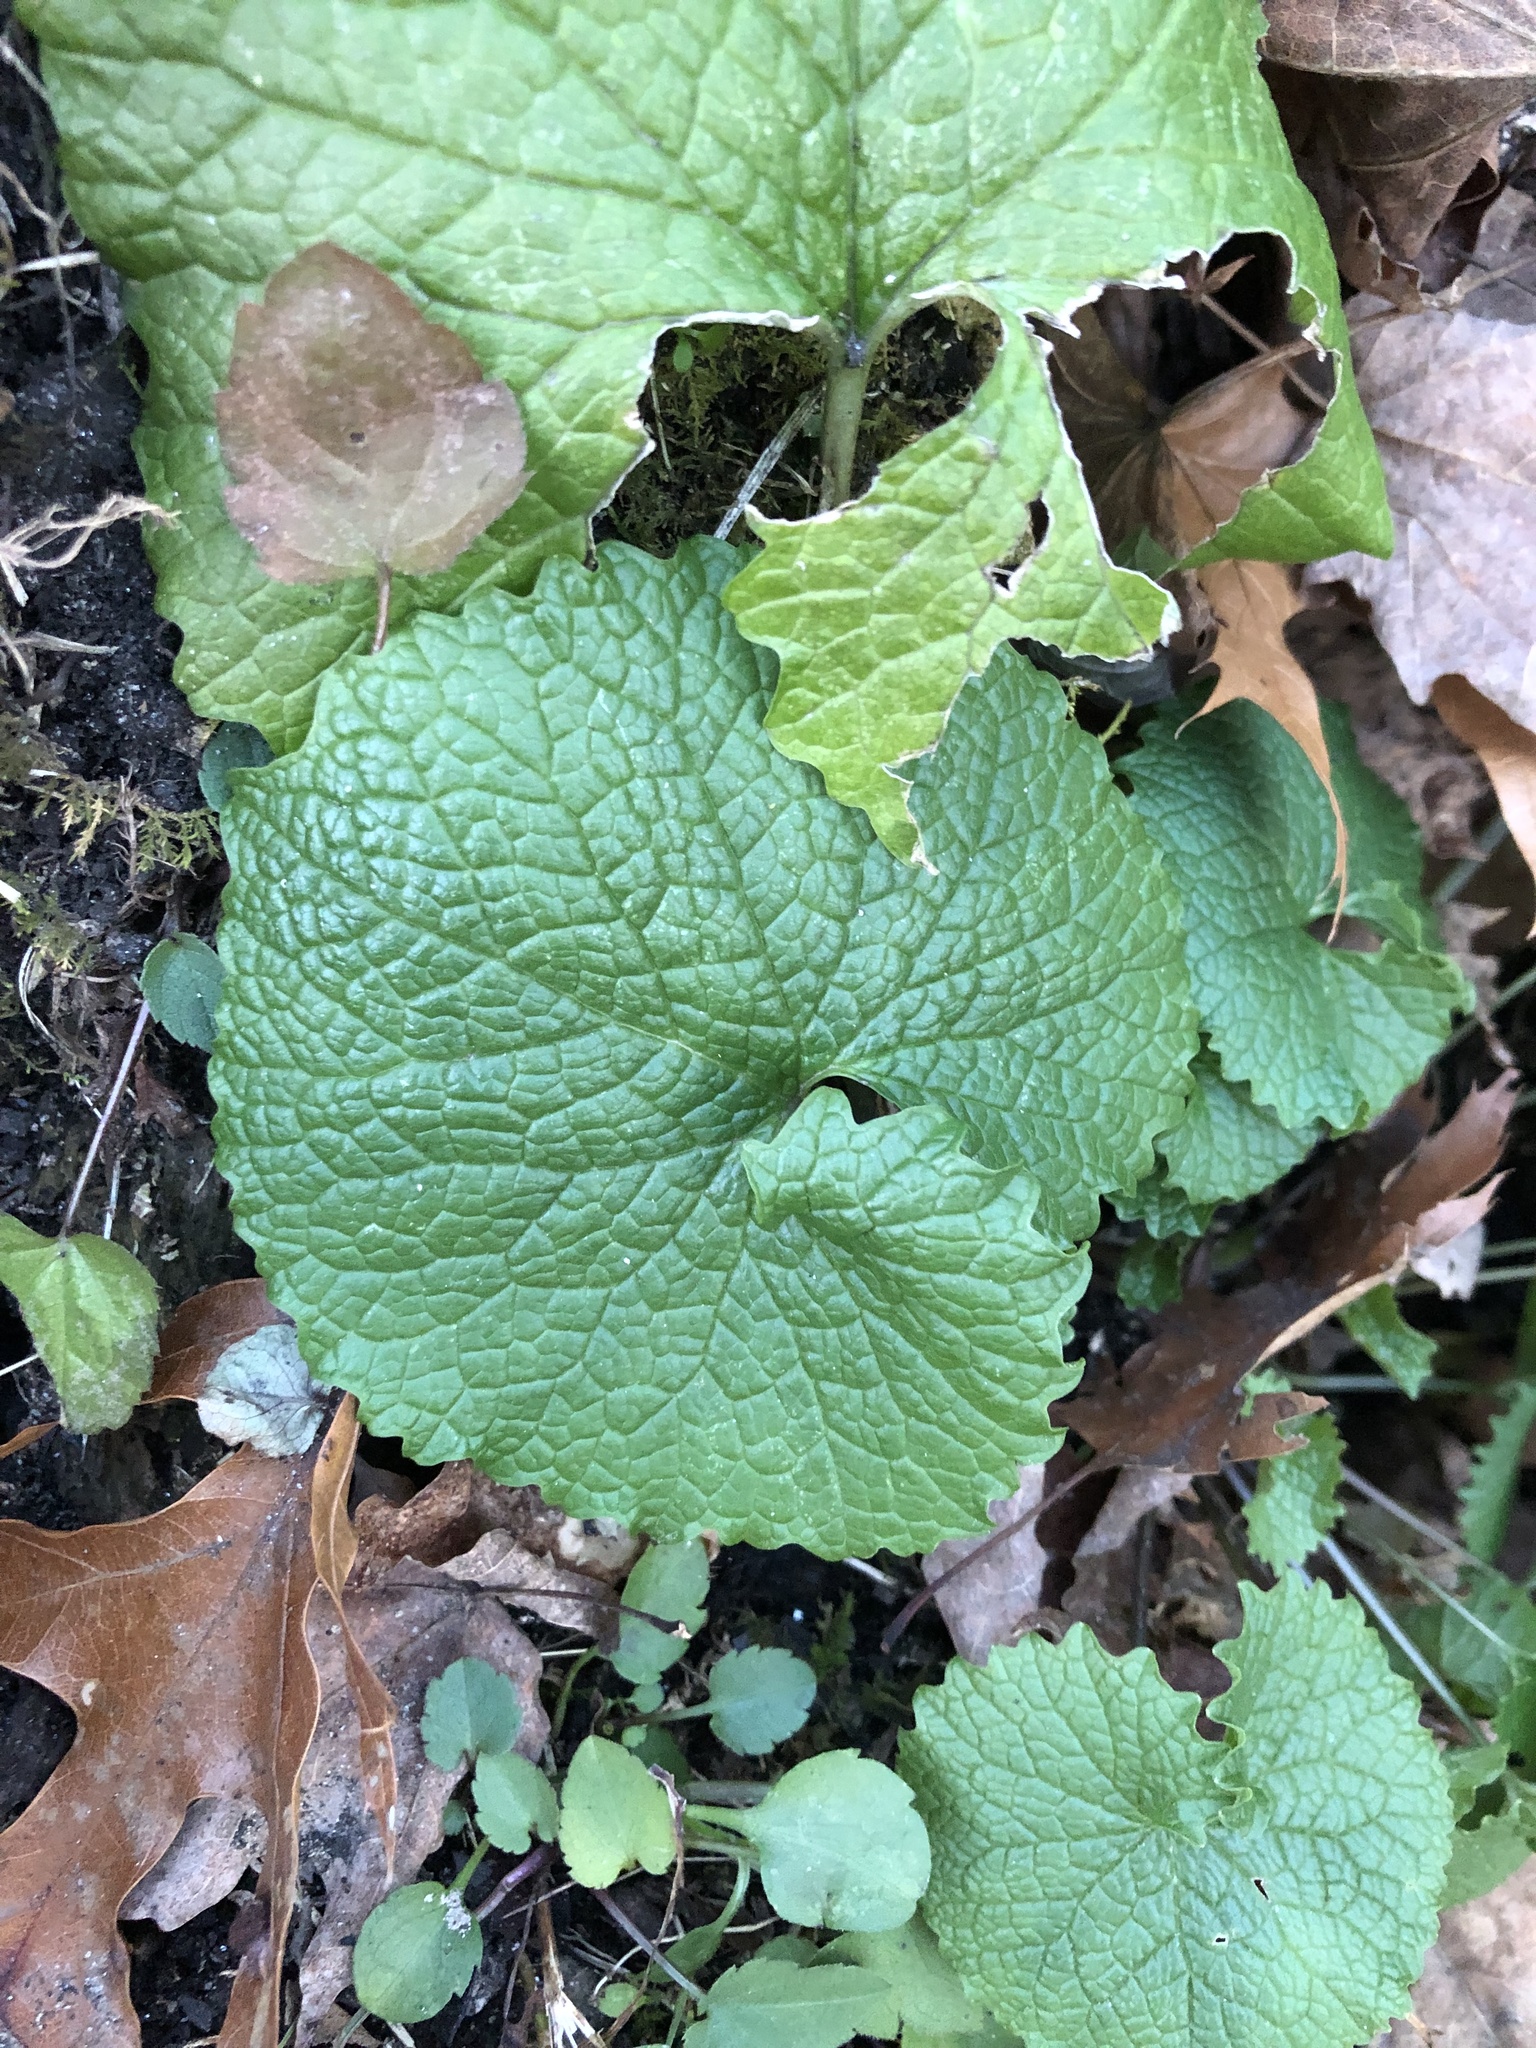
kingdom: Plantae
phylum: Tracheophyta
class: Magnoliopsida
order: Brassicales
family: Brassicaceae
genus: Alliaria
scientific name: Alliaria petiolata
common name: Garlic mustard
